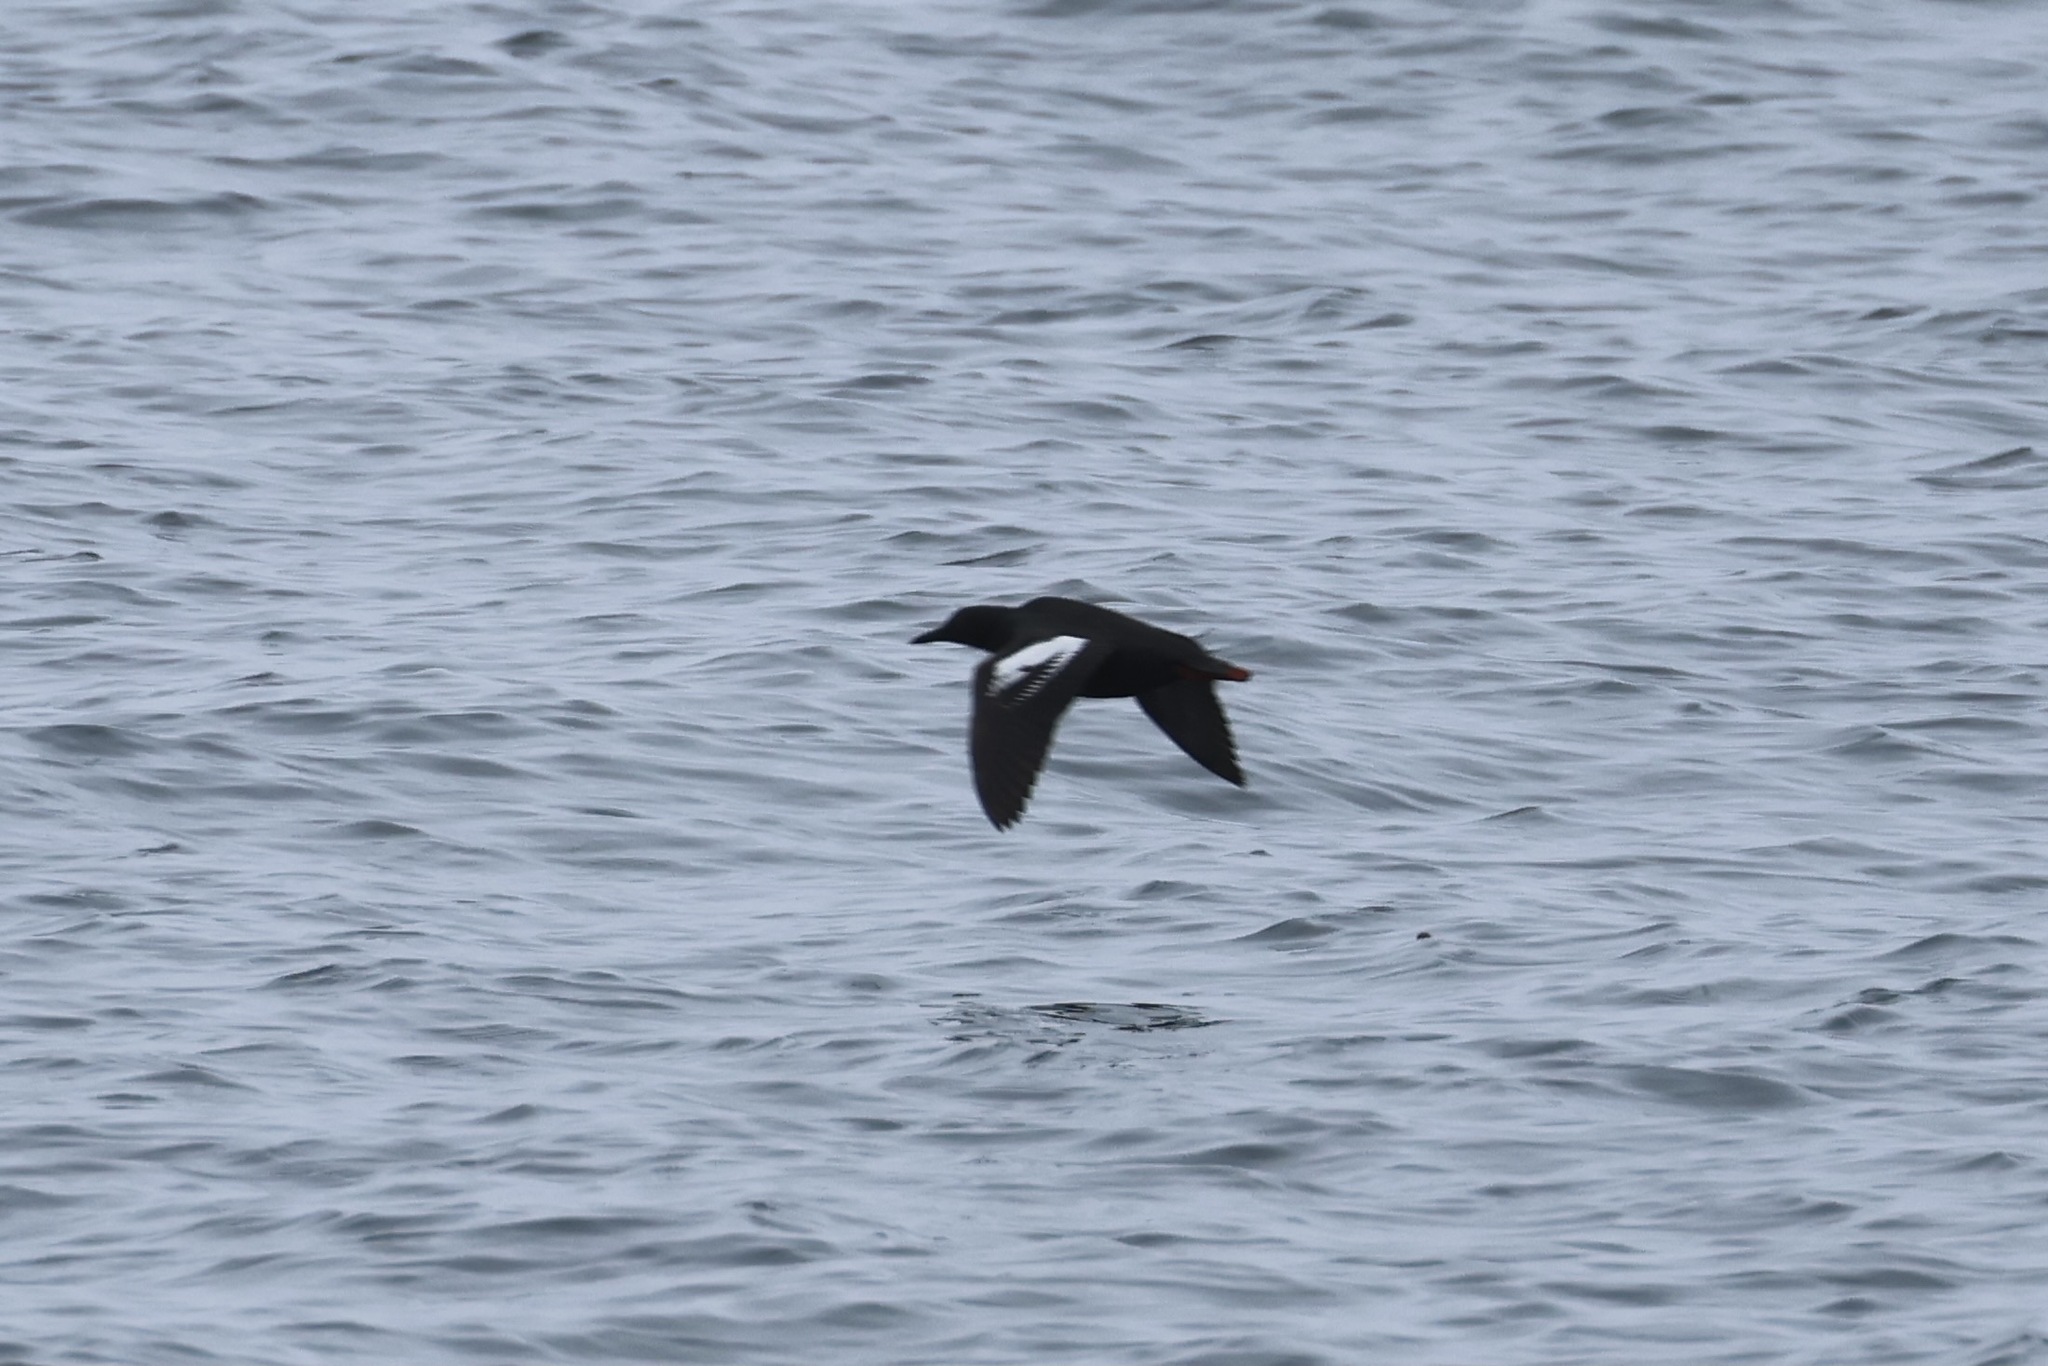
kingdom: Animalia
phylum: Chordata
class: Aves
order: Charadriiformes
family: Alcidae
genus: Cepphus
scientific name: Cepphus columba
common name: Pigeon guillemot
